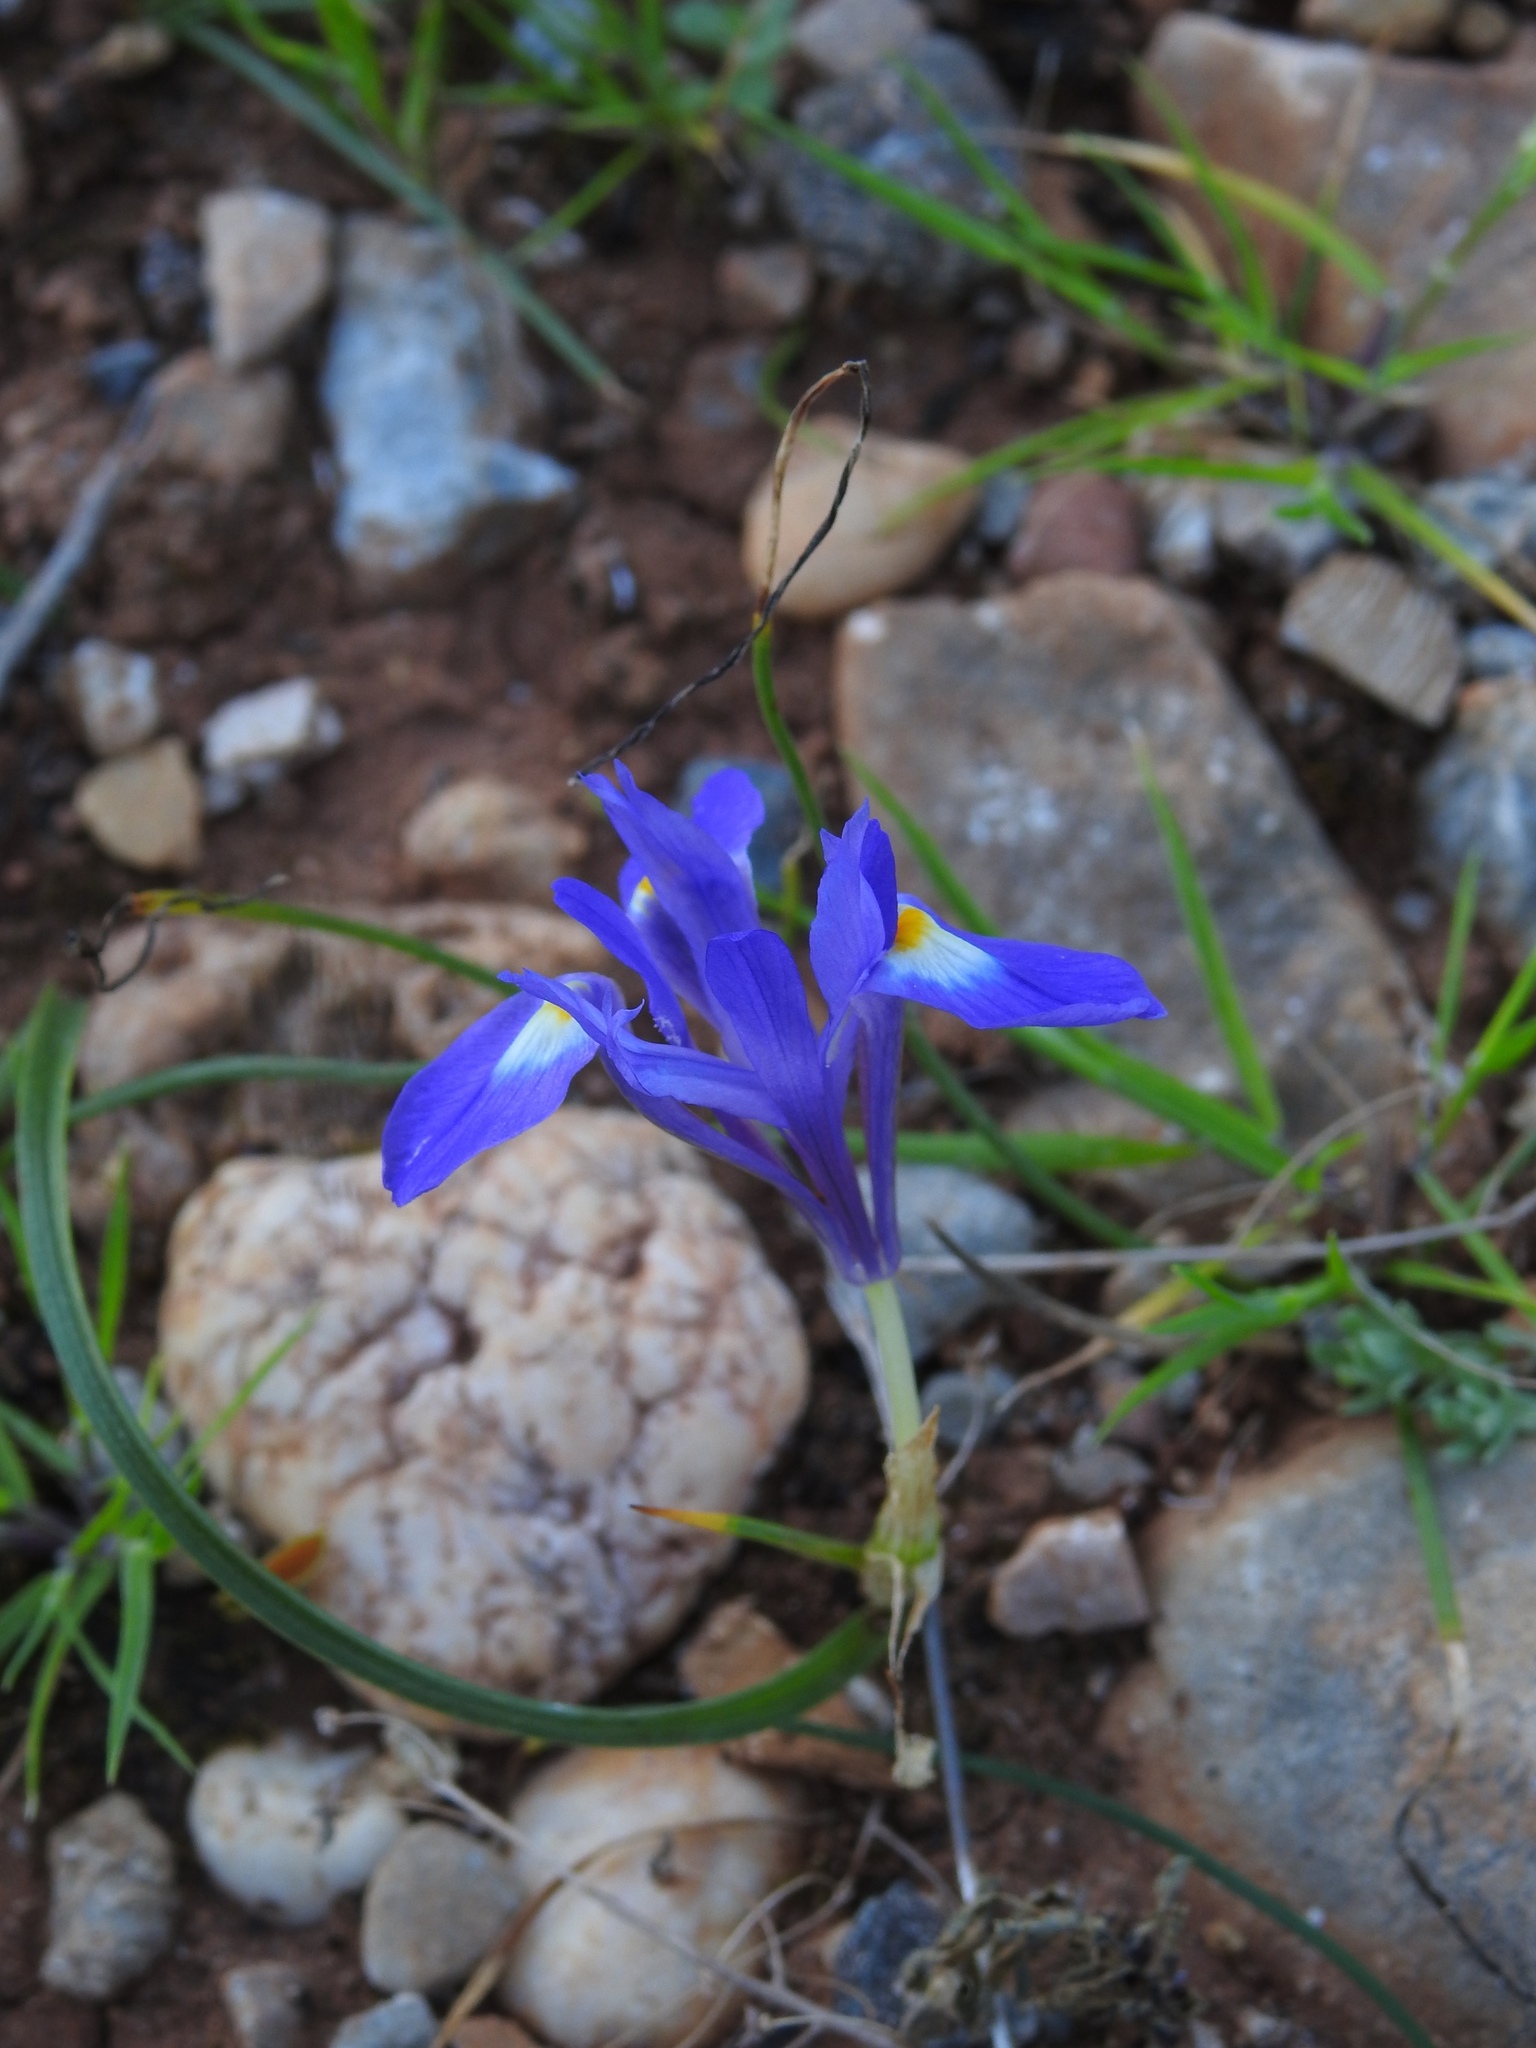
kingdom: Plantae
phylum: Tracheophyta
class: Liliopsida
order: Asparagales
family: Iridaceae
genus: Moraea
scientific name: Moraea sisyrinchium
